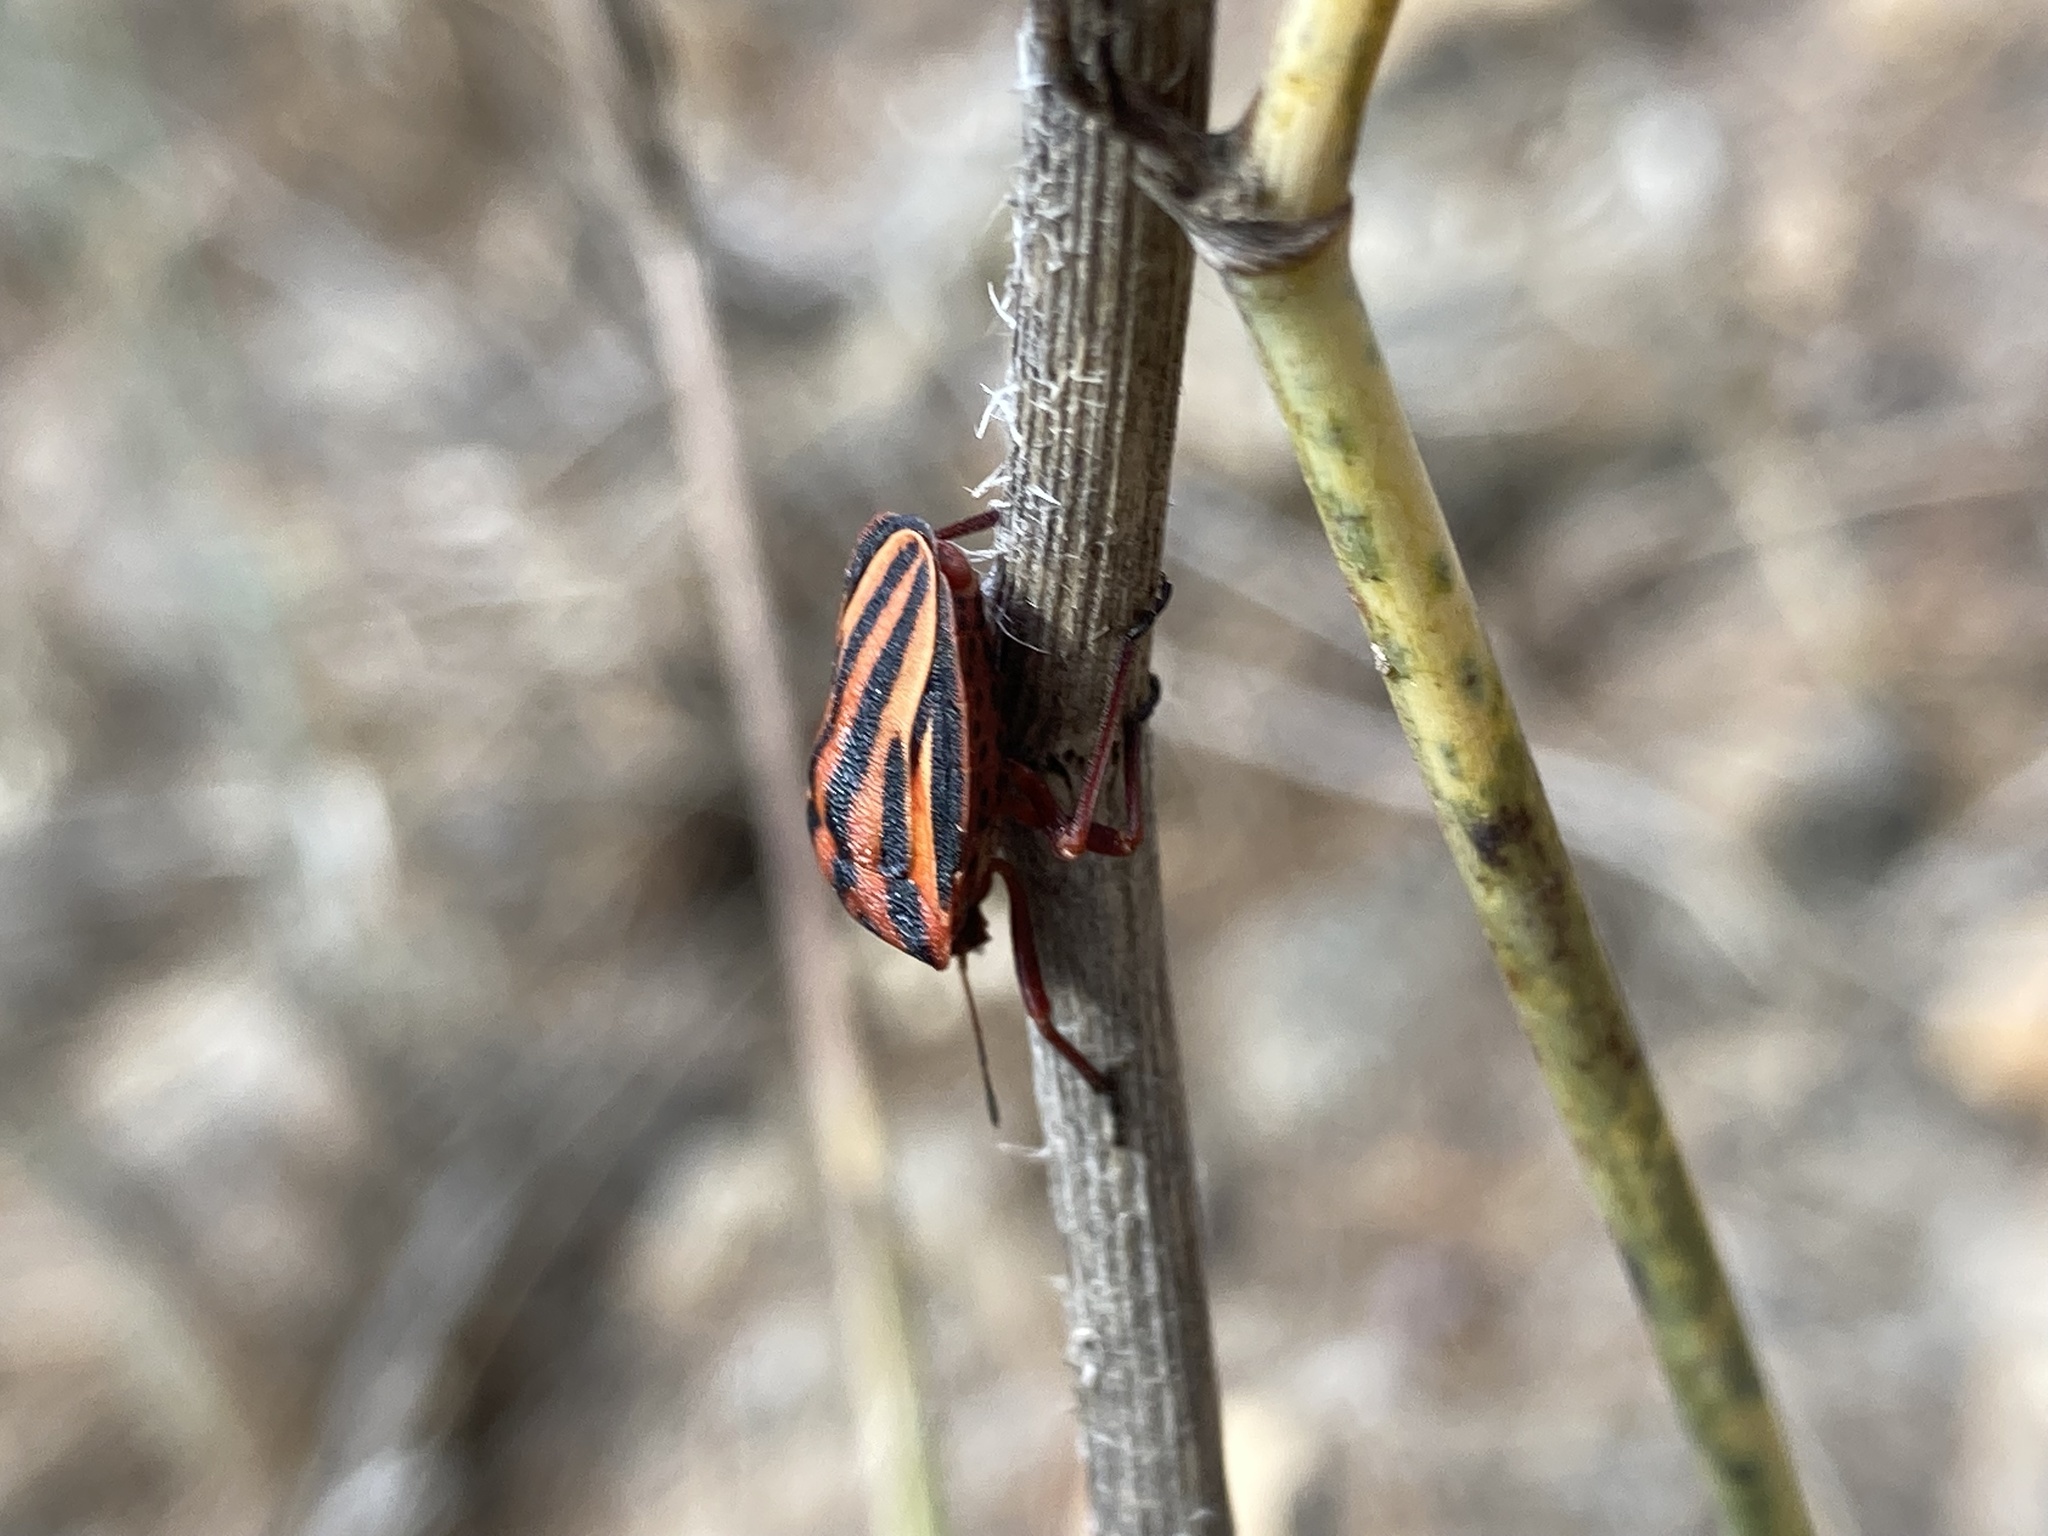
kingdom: Animalia
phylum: Arthropoda
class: Insecta
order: Hemiptera
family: Pentatomidae
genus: Graphosoma
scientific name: Graphosoma interruptum
